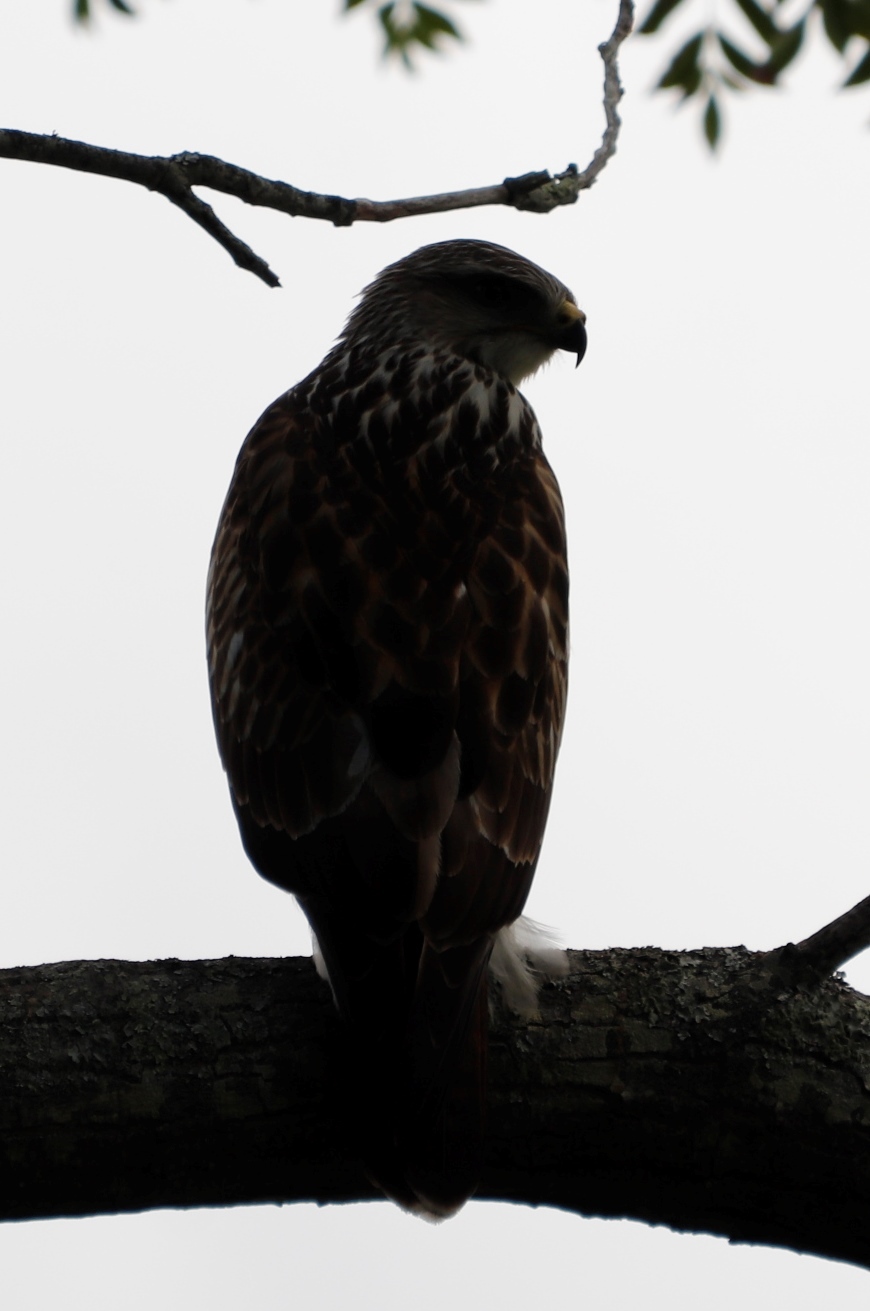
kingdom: Animalia
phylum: Chordata
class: Aves
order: Accipitriformes
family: Accipitridae
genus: Buteo
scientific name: Buteo trizonatus
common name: Forest buzzard
